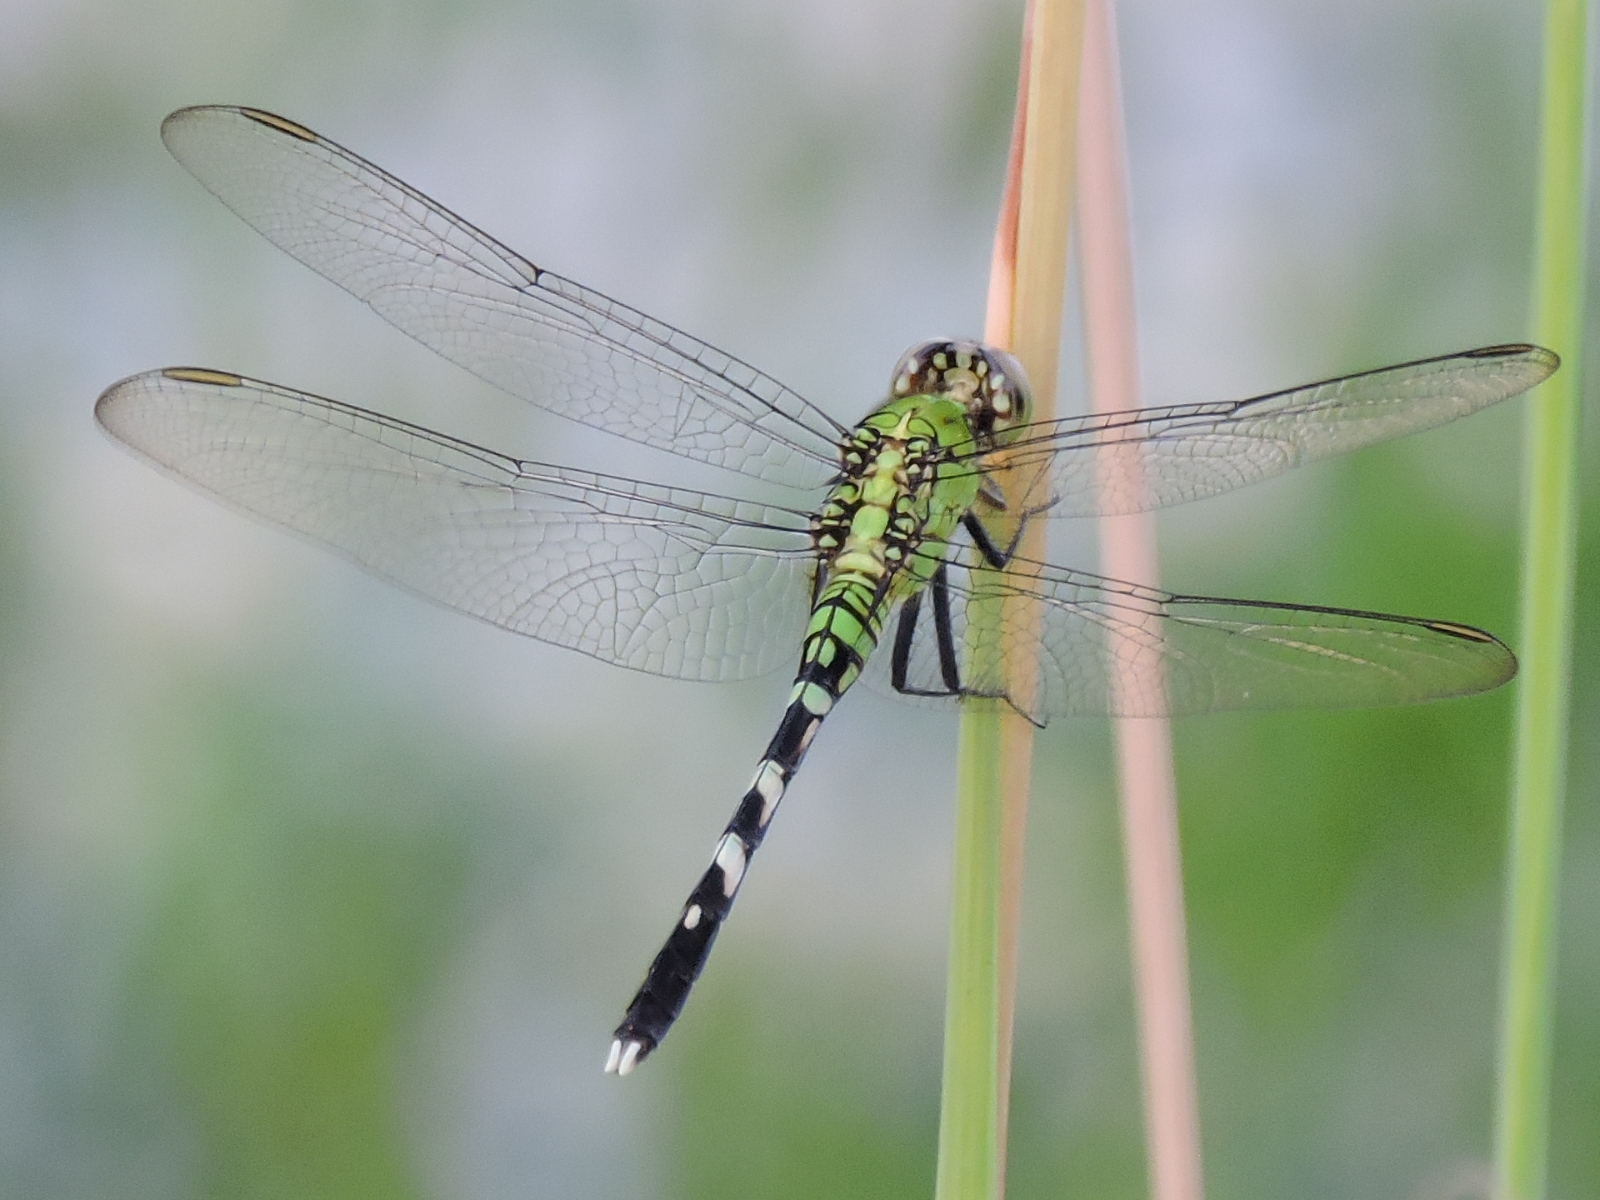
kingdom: Animalia
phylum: Arthropoda
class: Insecta
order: Odonata
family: Libellulidae
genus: Erythemis
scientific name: Erythemis simplicicollis
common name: Eastern pondhawk
